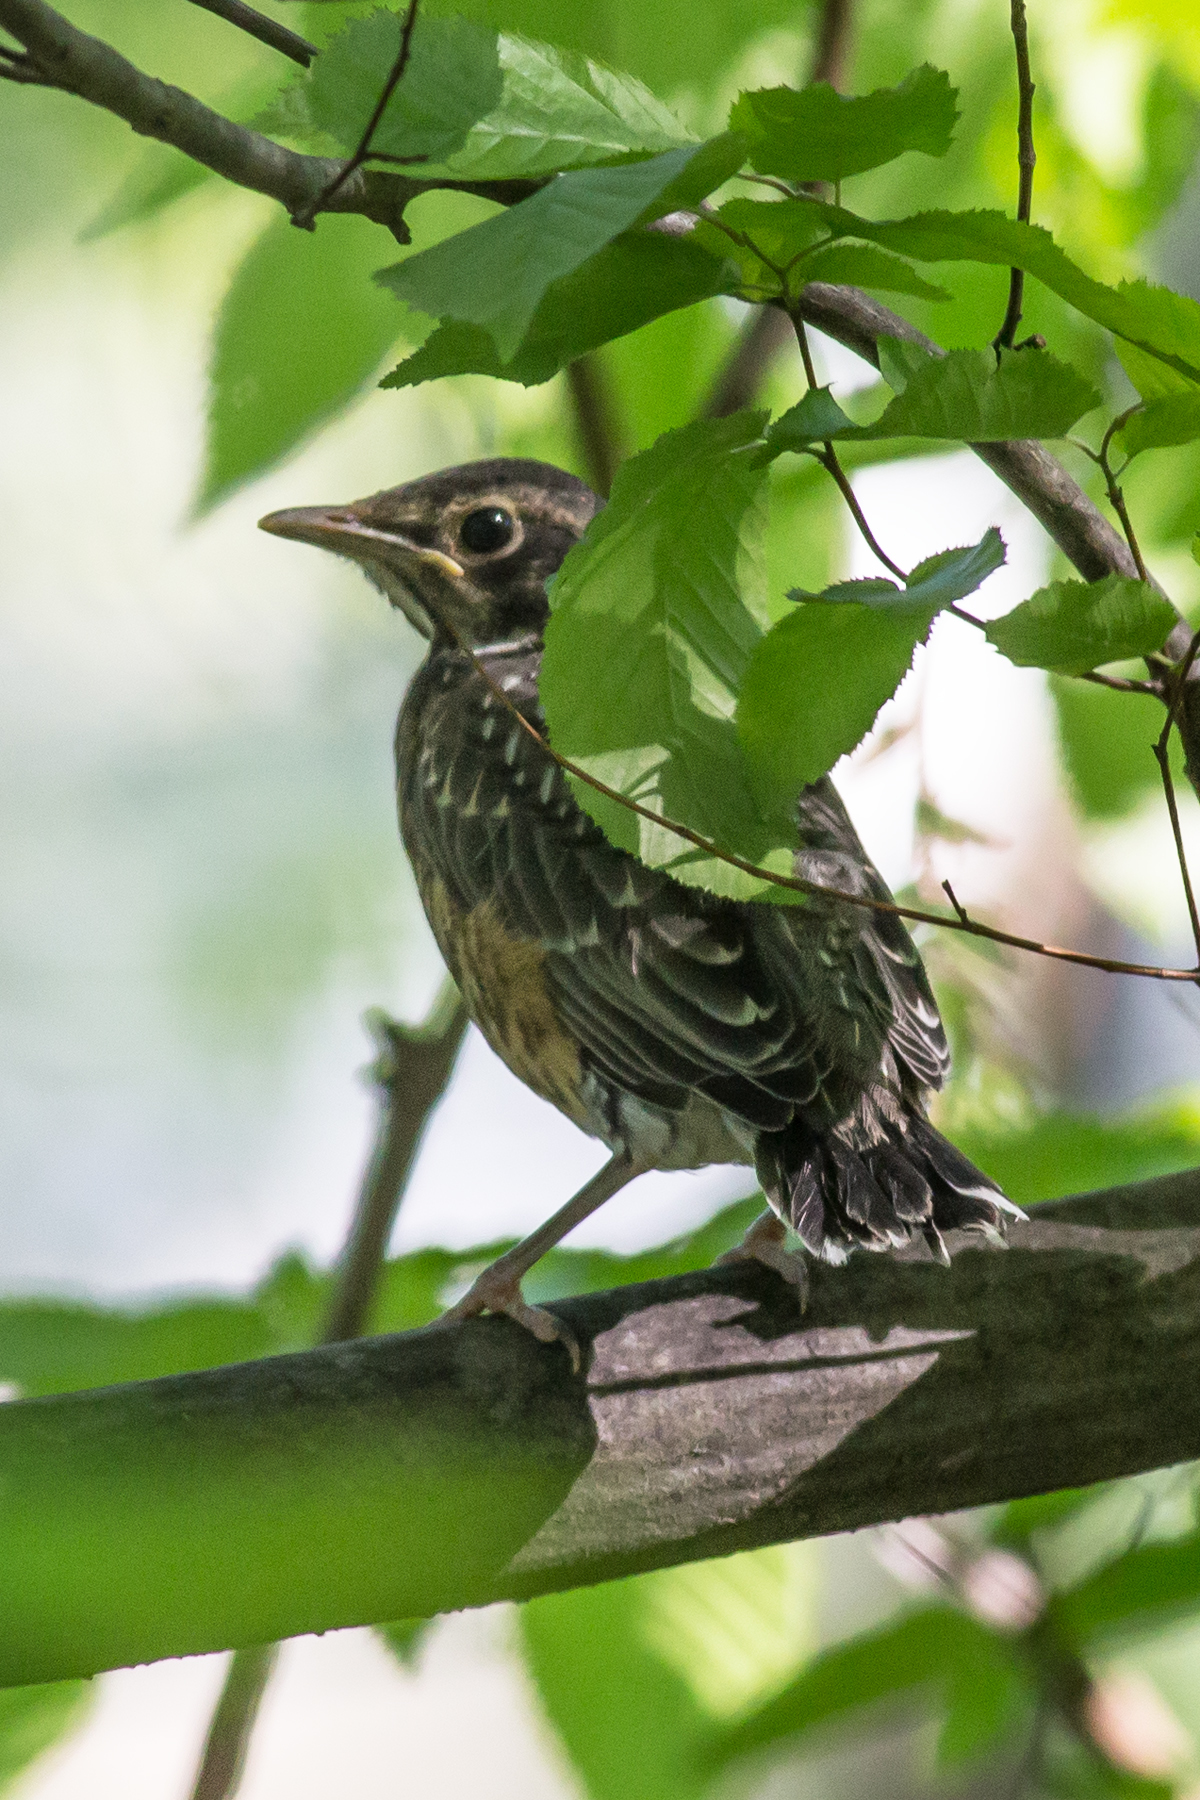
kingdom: Animalia
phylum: Chordata
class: Aves
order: Passeriformes
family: Turdidae
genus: Turdus
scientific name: Turdus migratorius
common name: American robin
